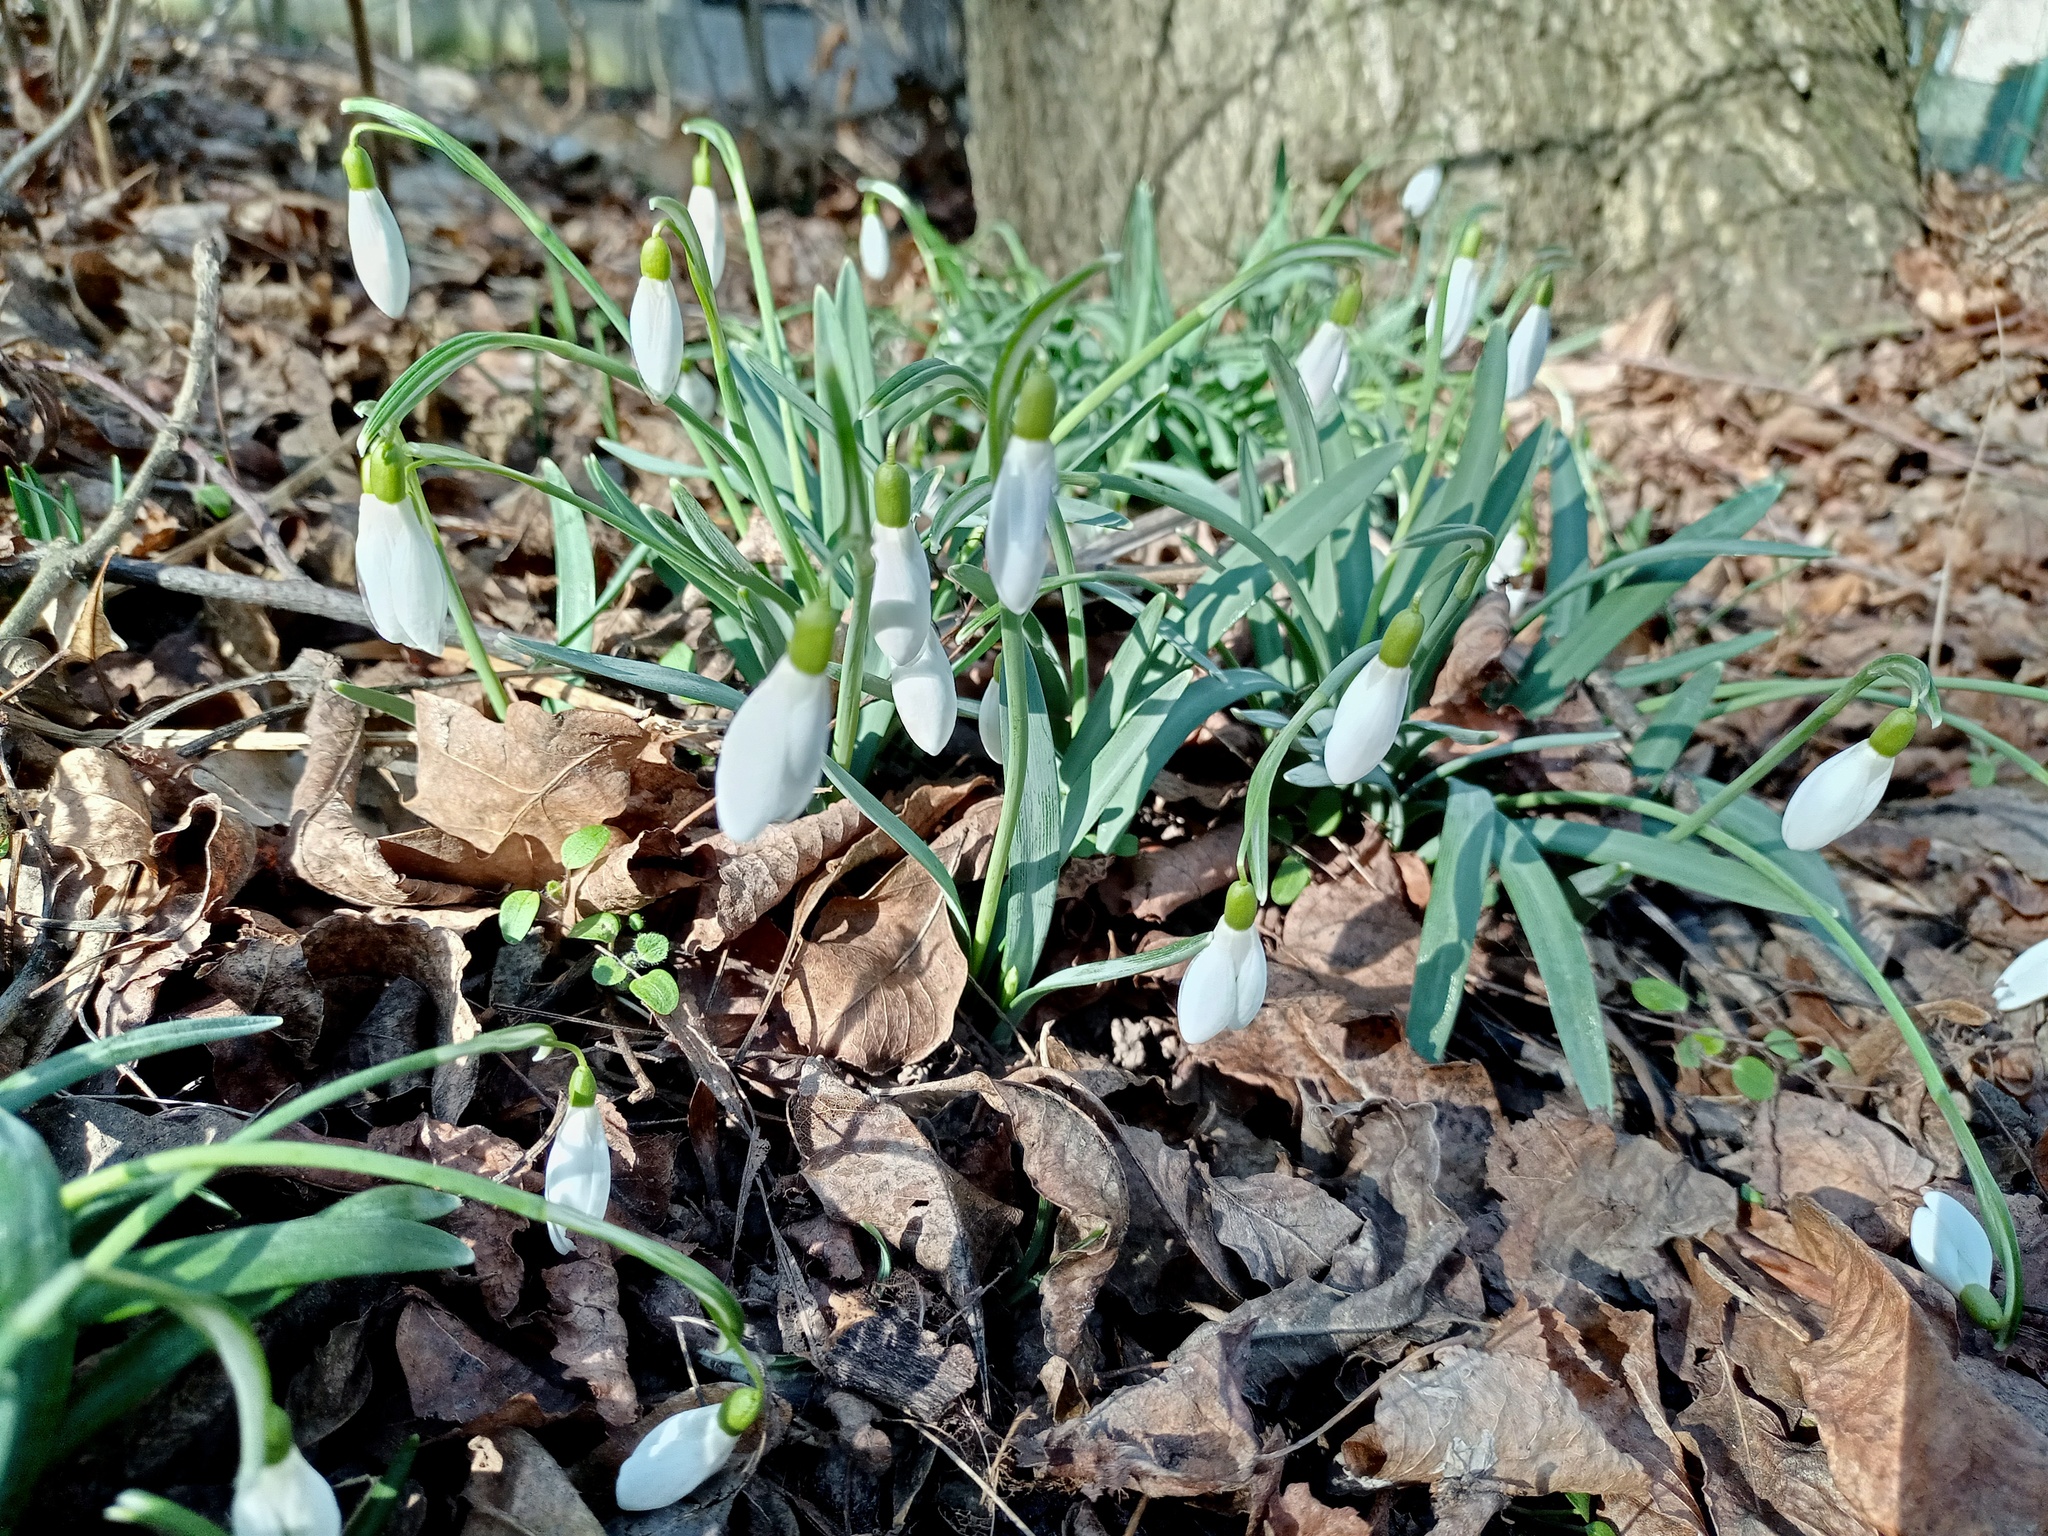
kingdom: Plantae
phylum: Tracheophyta
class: Liliopsida
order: Asparagales
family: Amaryllidaceae
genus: Galanthus
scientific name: Galanthus nivalis
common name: Snowdrop
